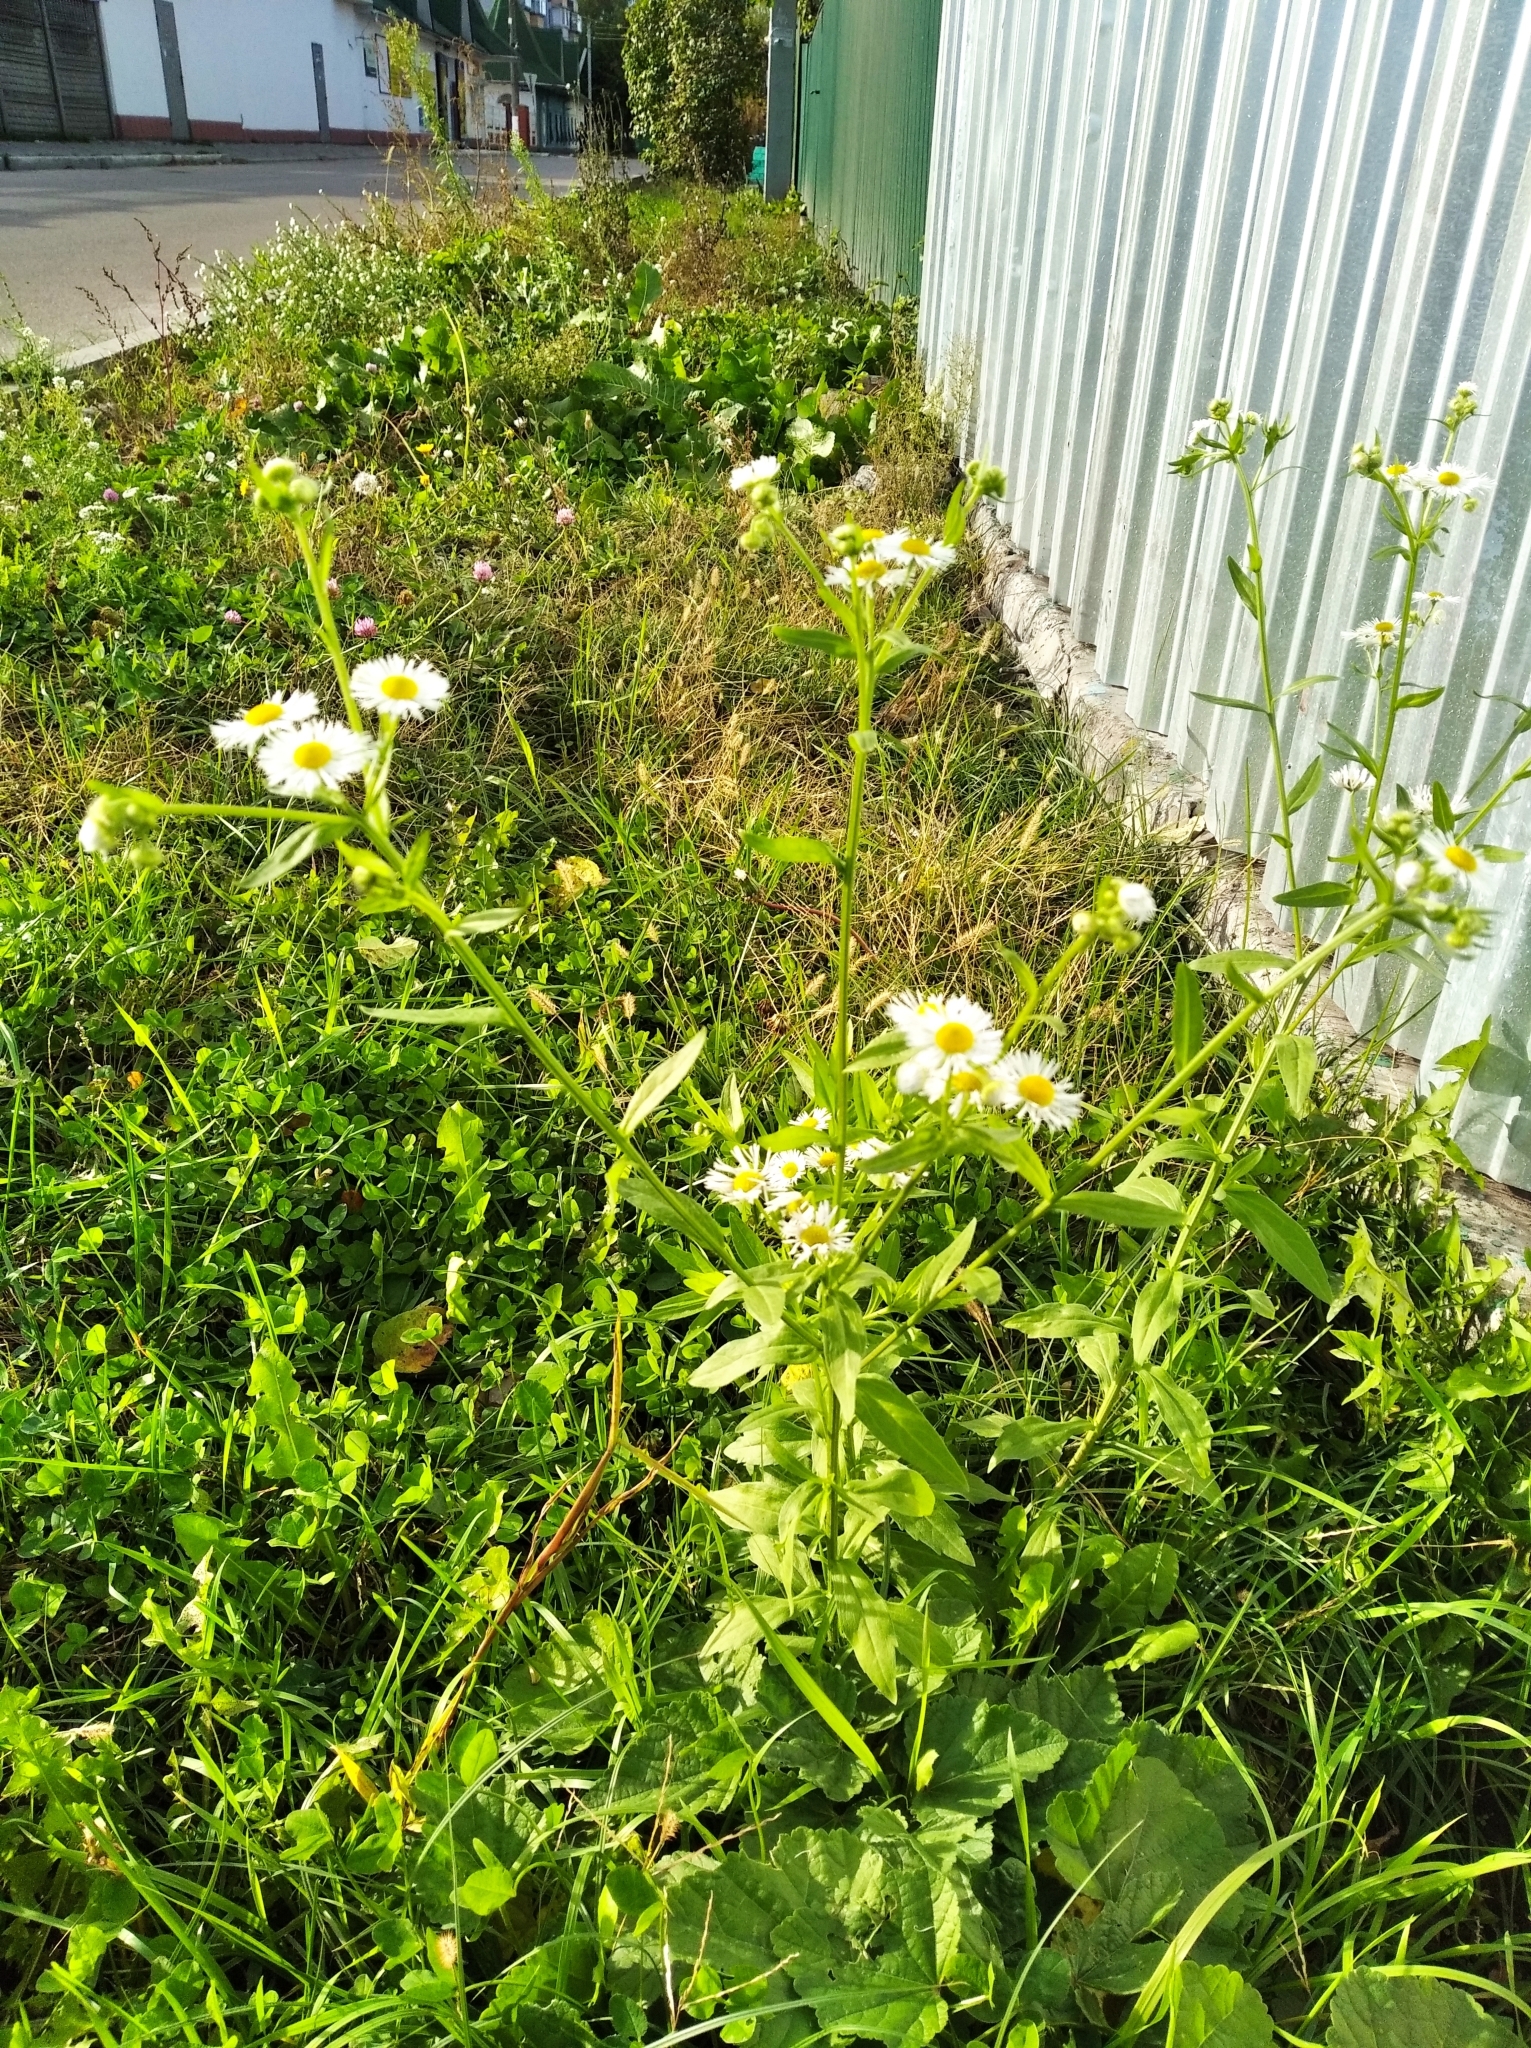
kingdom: Plantae
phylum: Tracheophyta
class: Magnoliopsida
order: Asterales
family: Asteraceae
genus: Erigeron
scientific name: Erigeron annuus
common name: Tall fleabane
